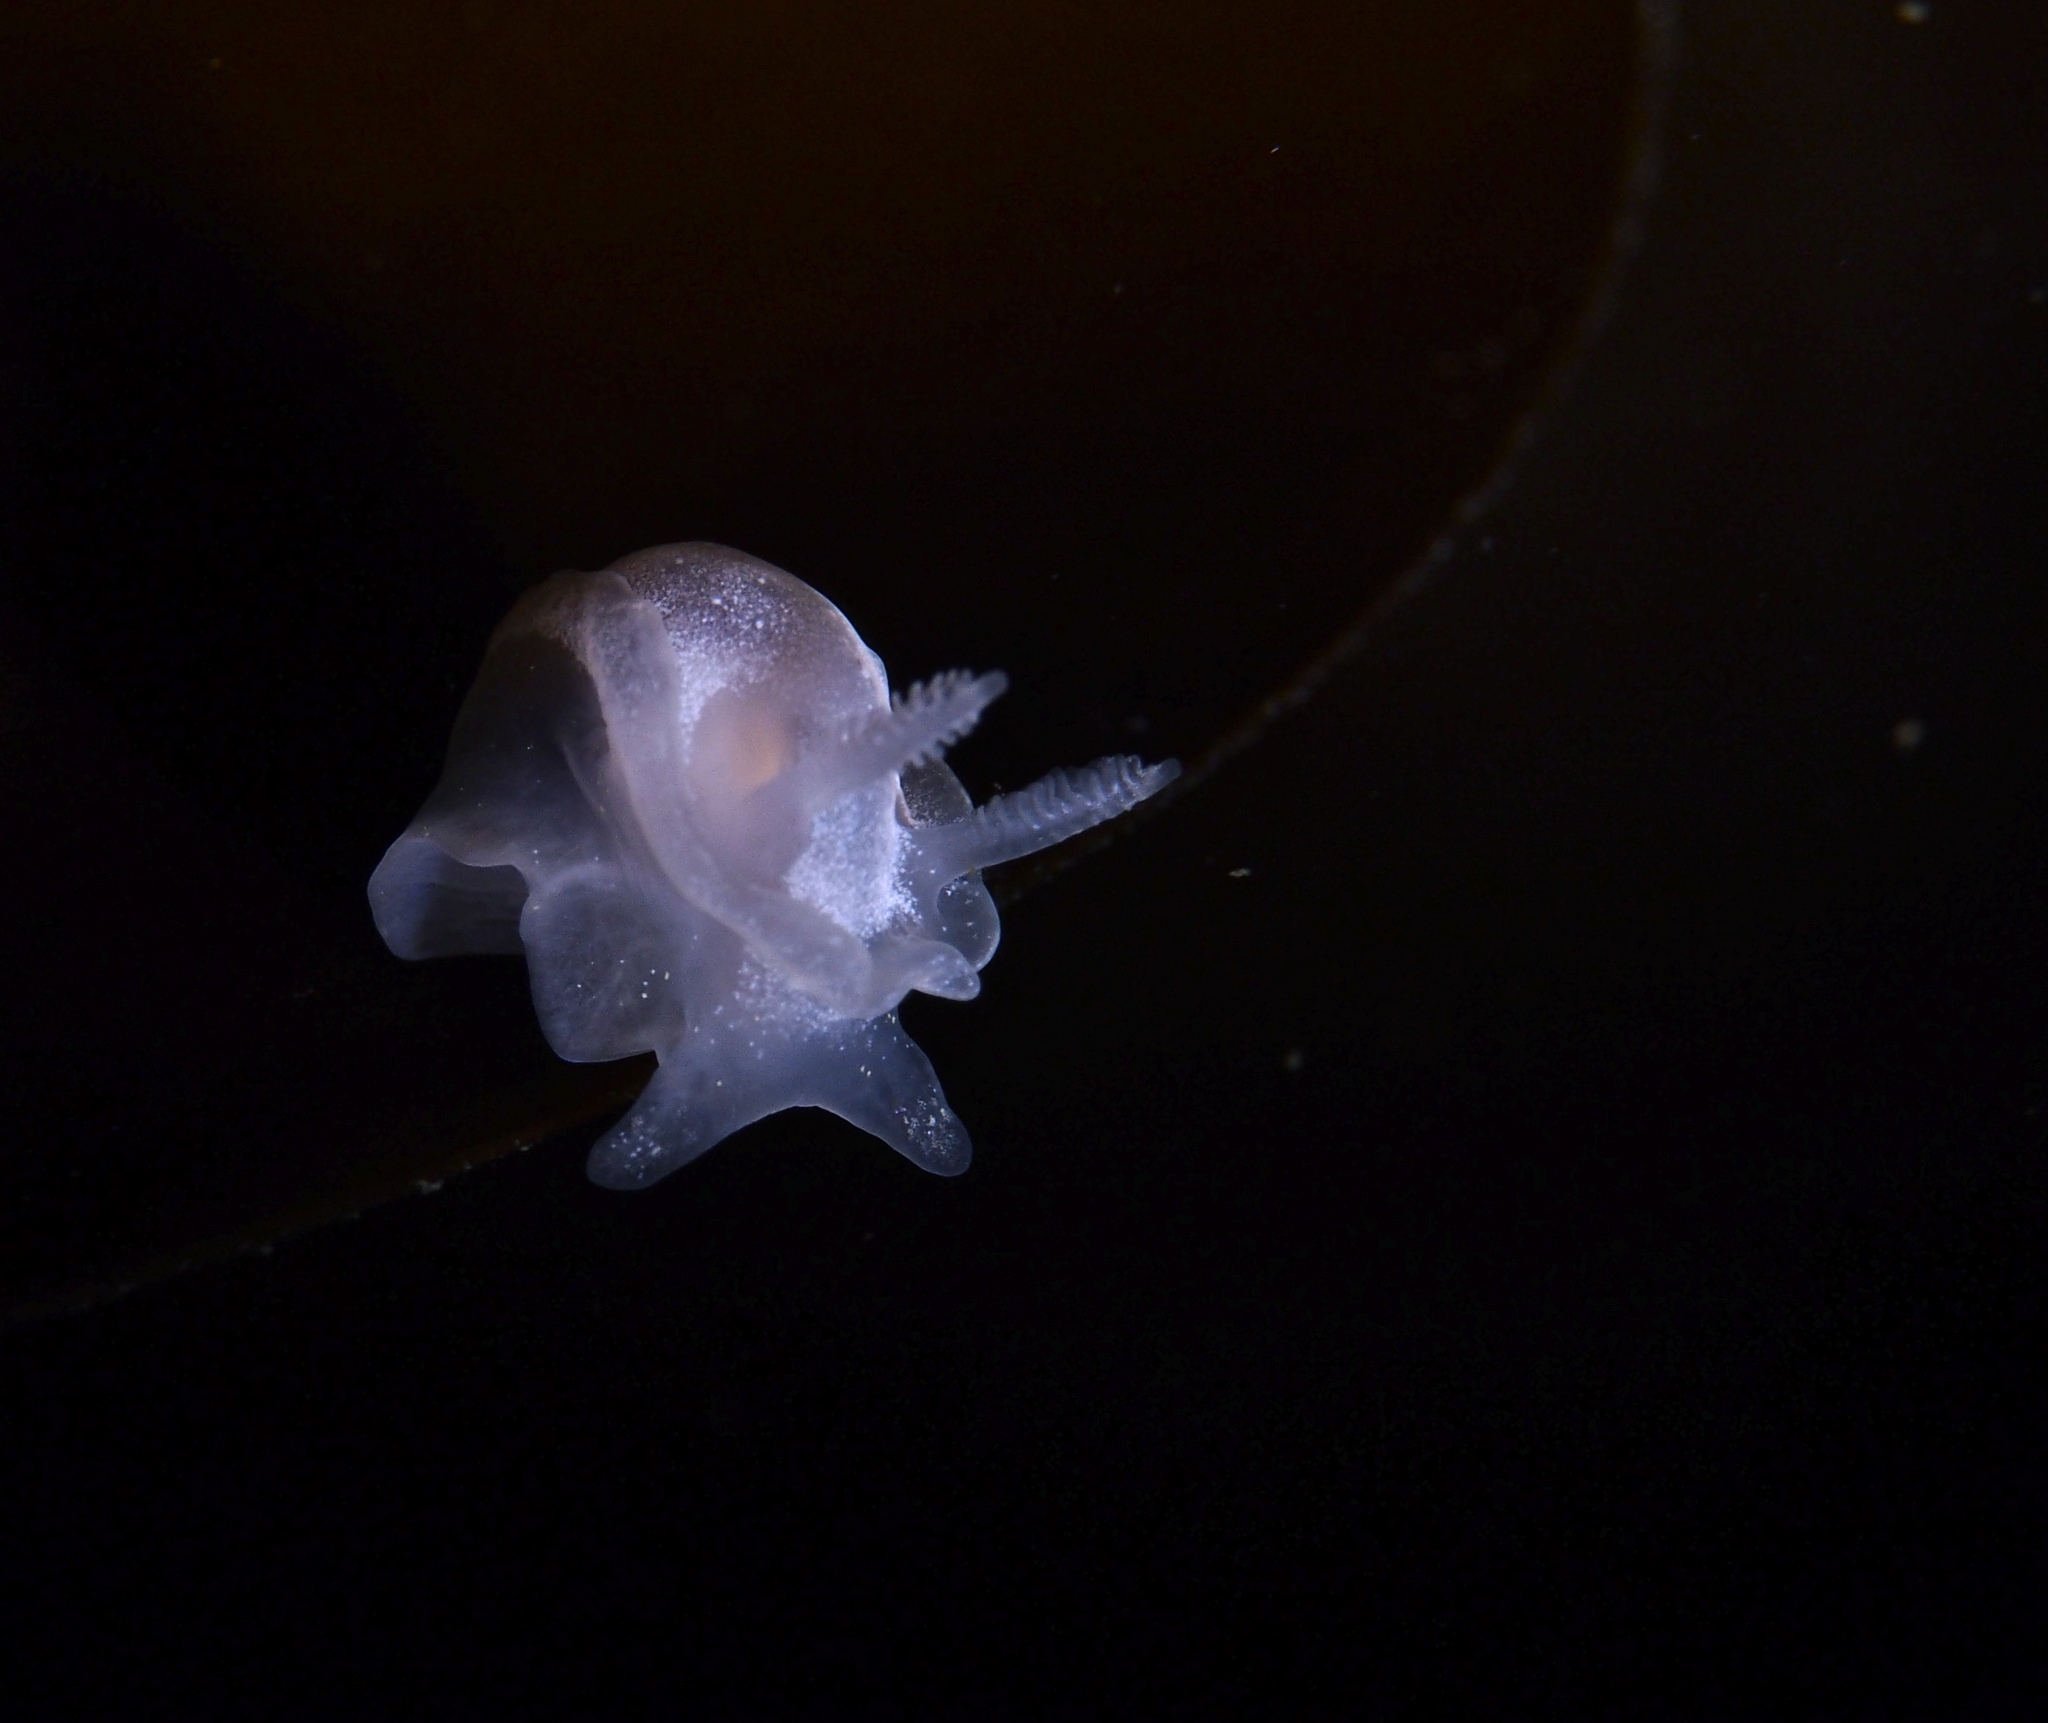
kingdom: Animalia
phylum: Mollusca
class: Gastropoda
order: Nudibranchia
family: Goniodorididae
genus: Okenia
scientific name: Okenia
